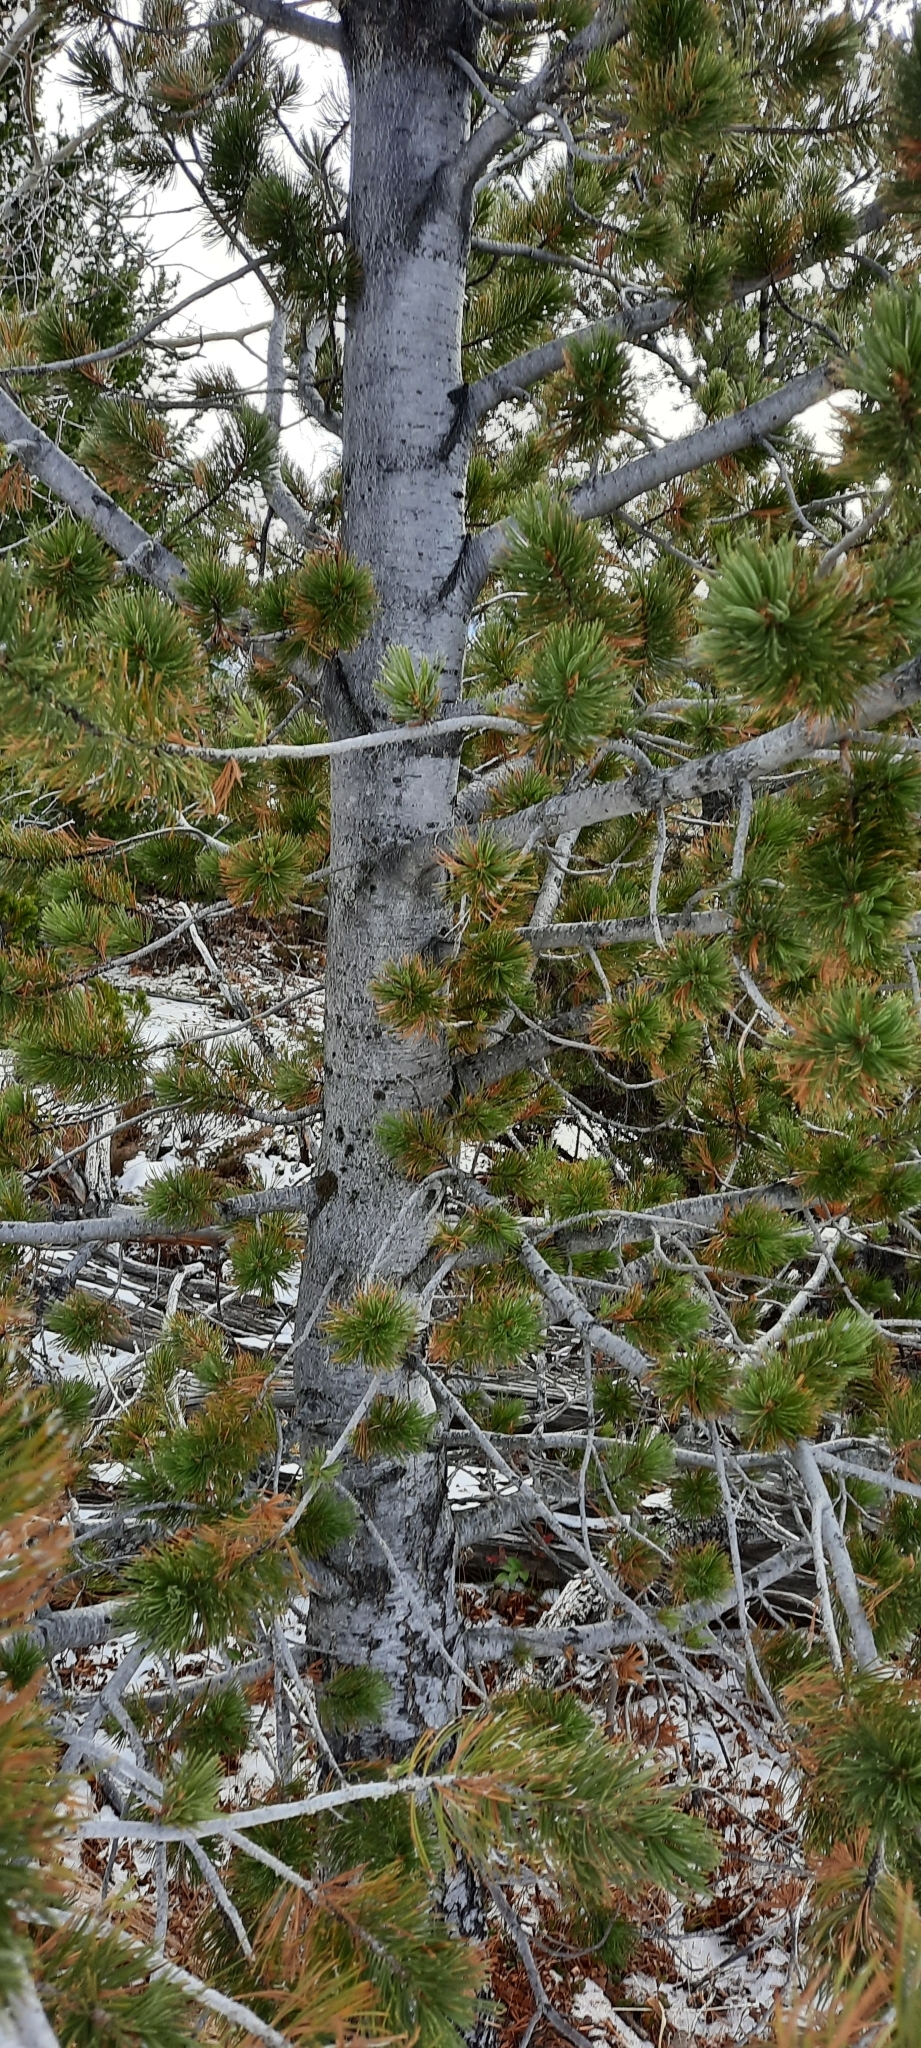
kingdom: Plantae
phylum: Tracheophyta
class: Pinopsida
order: Pinales
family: Pinaceae
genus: Pinus
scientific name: Pinus flexilis
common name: Limber pine
